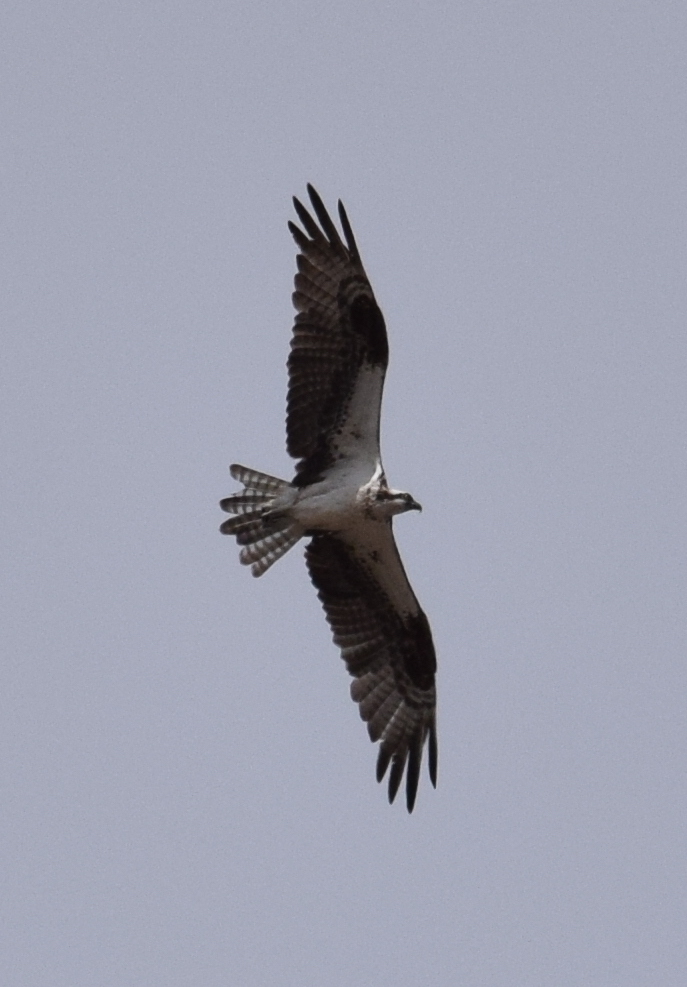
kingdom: Animalia
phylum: Chordata
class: Aves
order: Accipitriformes
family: Pandionidae
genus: Pandion
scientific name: Pandion haliaetus
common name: Osprey
